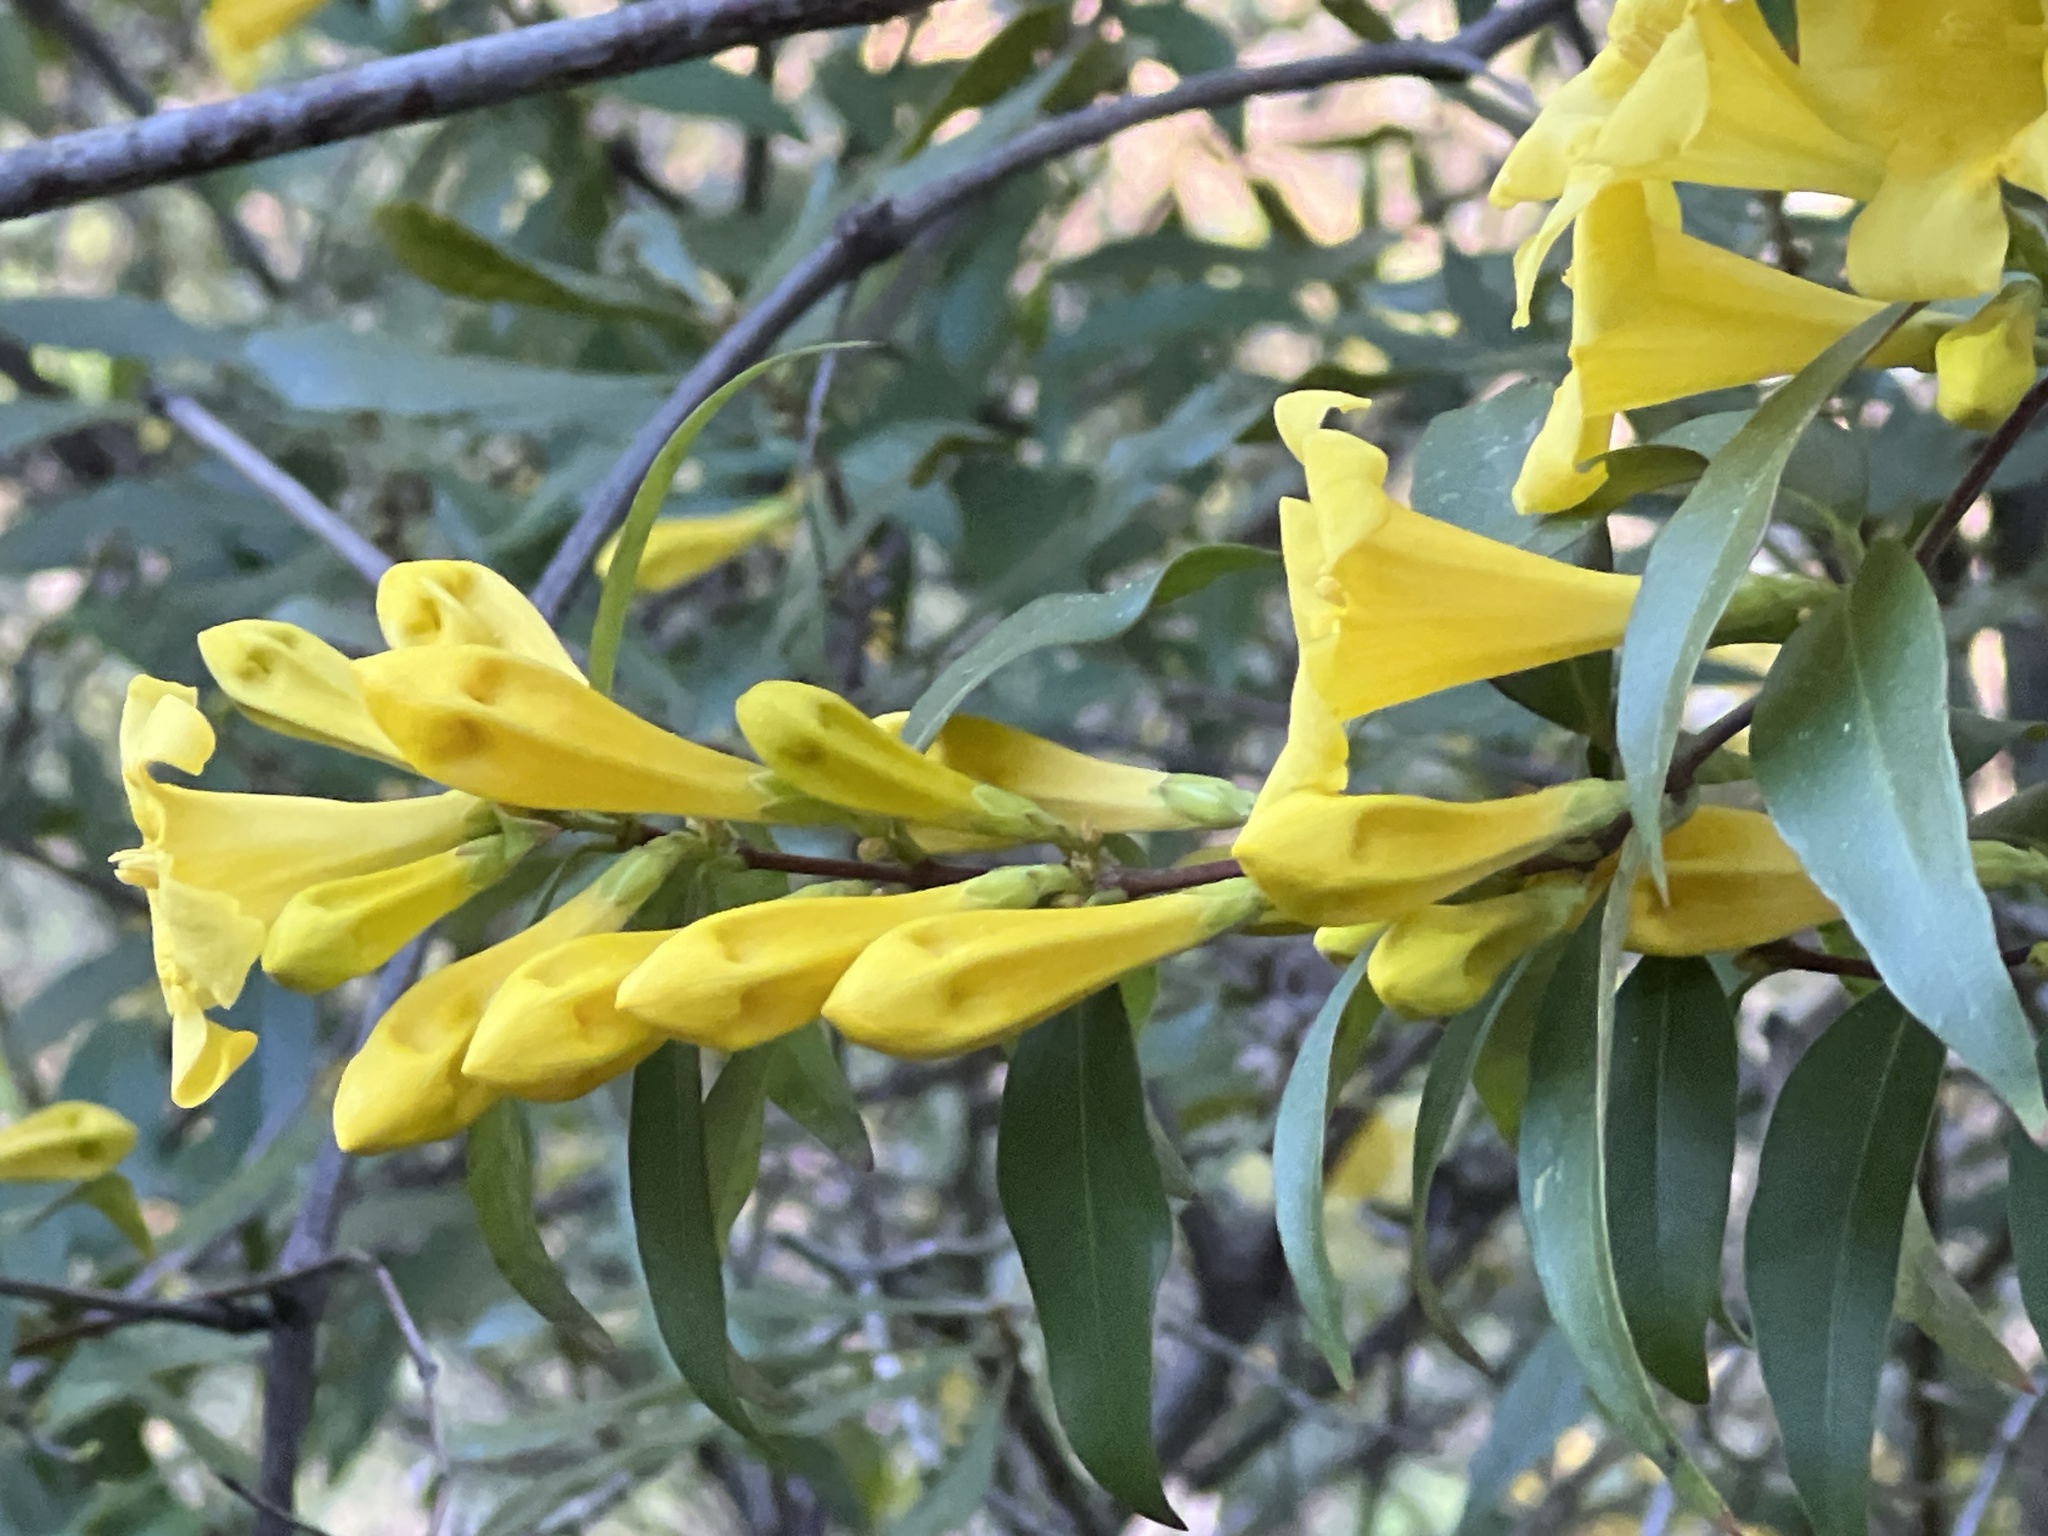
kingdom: Plantae
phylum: Tracheophyta
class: Magnoliopsida
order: Gentianales
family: Gelsemiaceae
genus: Gelsemium
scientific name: Gelsemium sempervirens
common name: Carolina-jasmine
